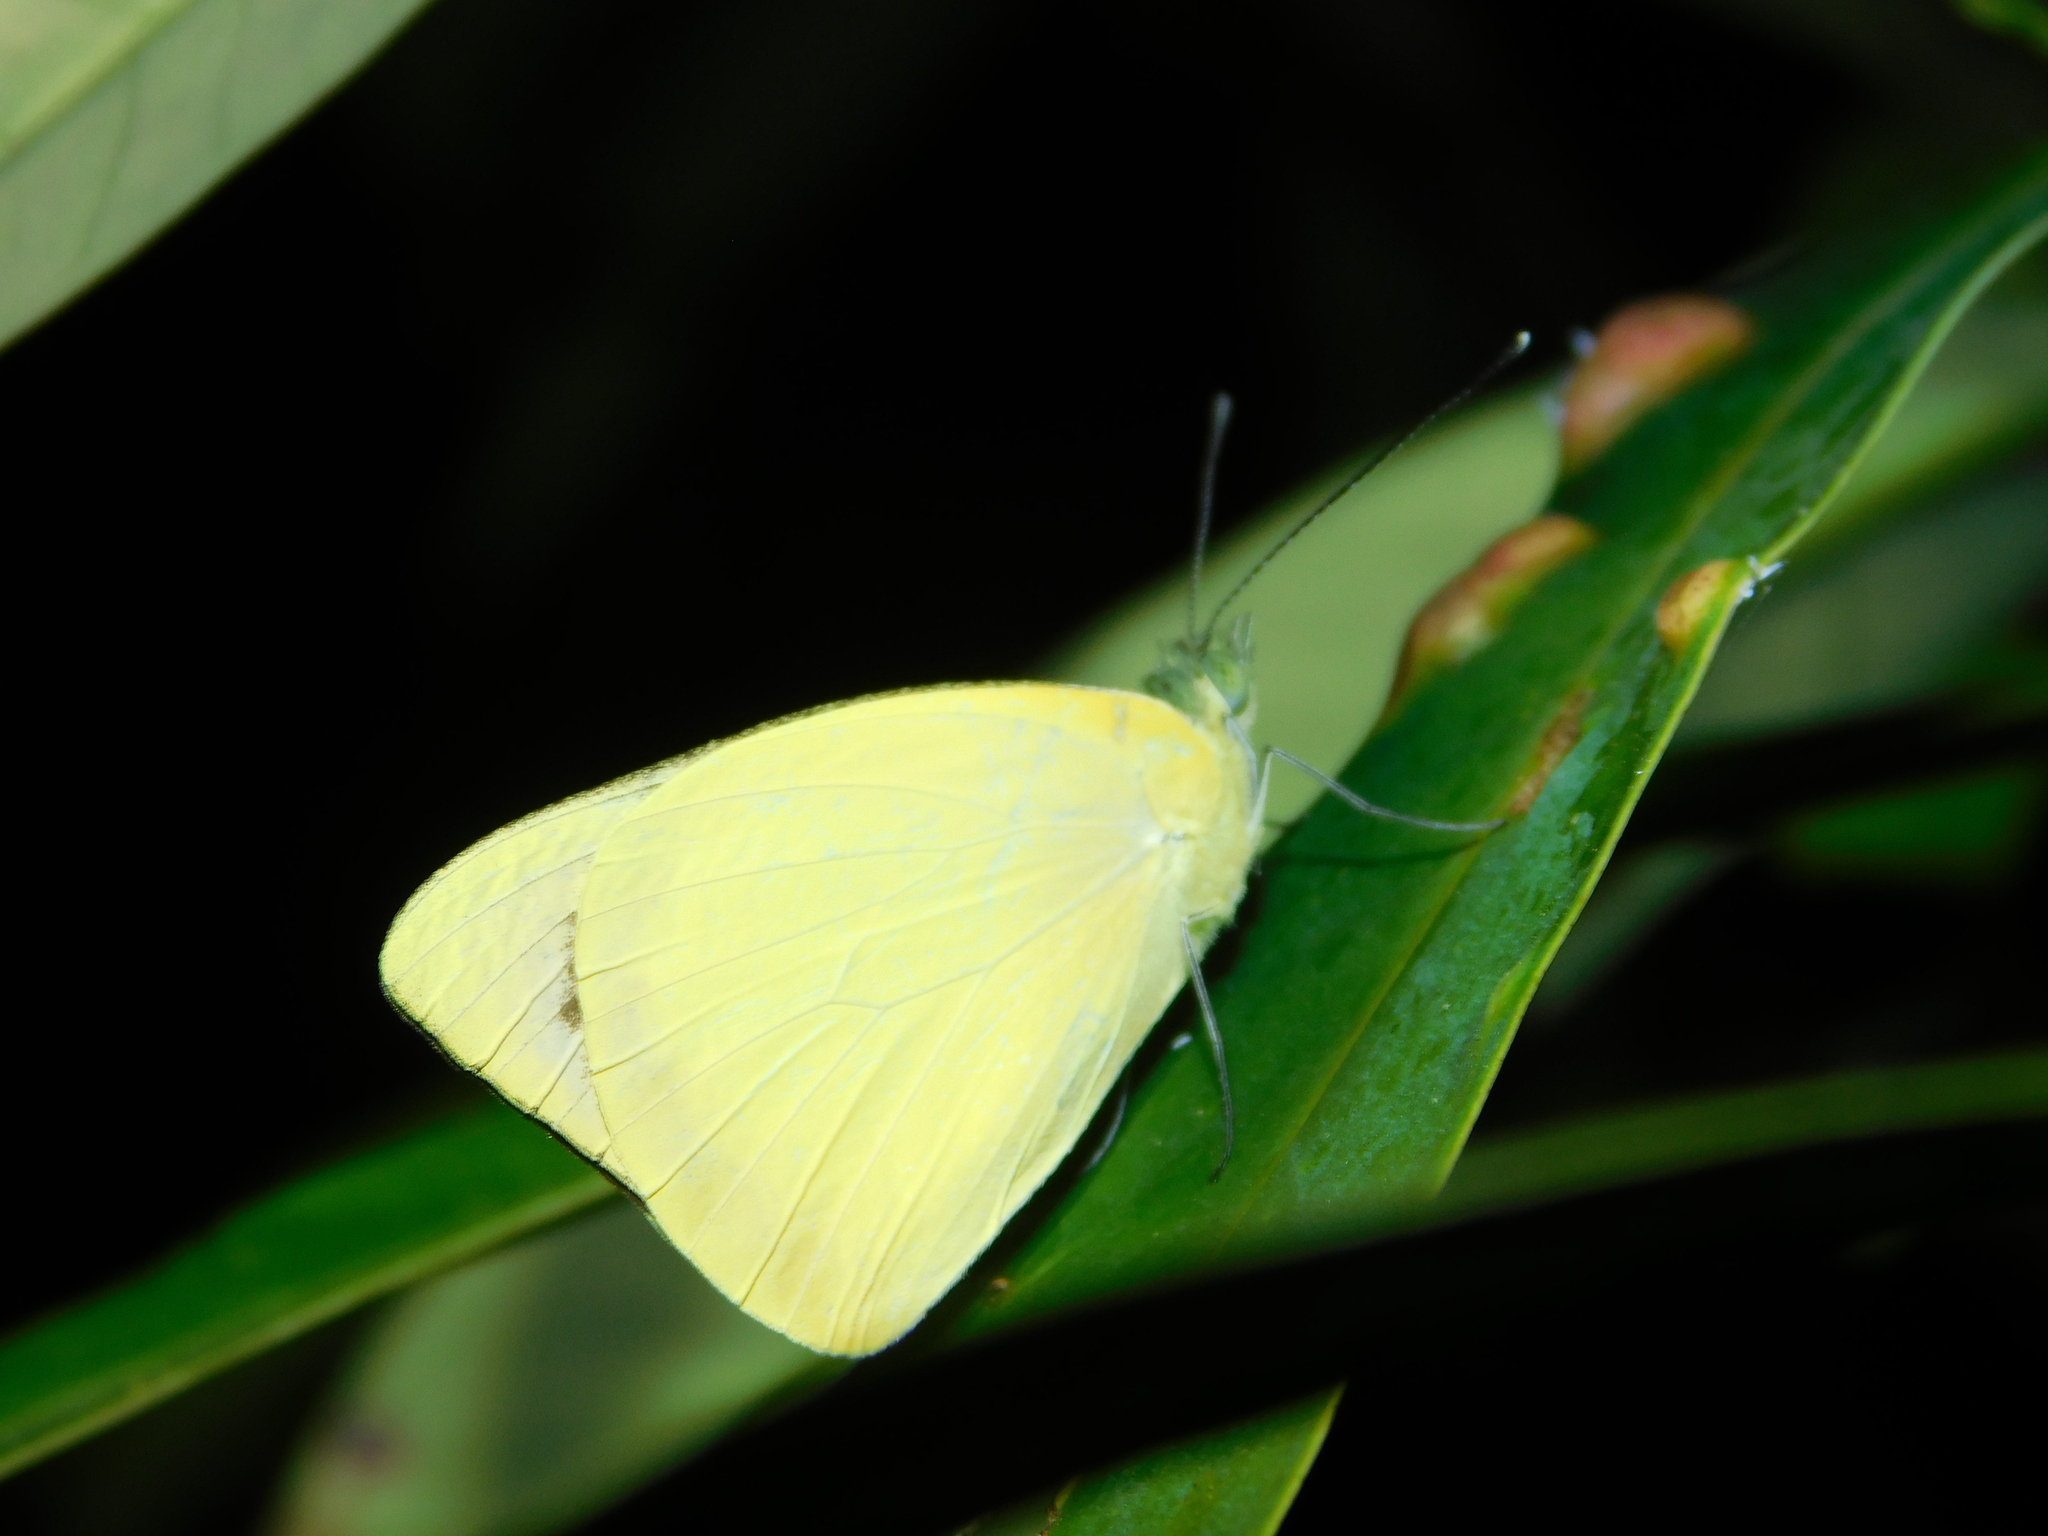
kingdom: Animalia
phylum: Arthropoda
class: Insecta
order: Lepidoptera
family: Pieridae
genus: Saletara
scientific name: Saletara panda
